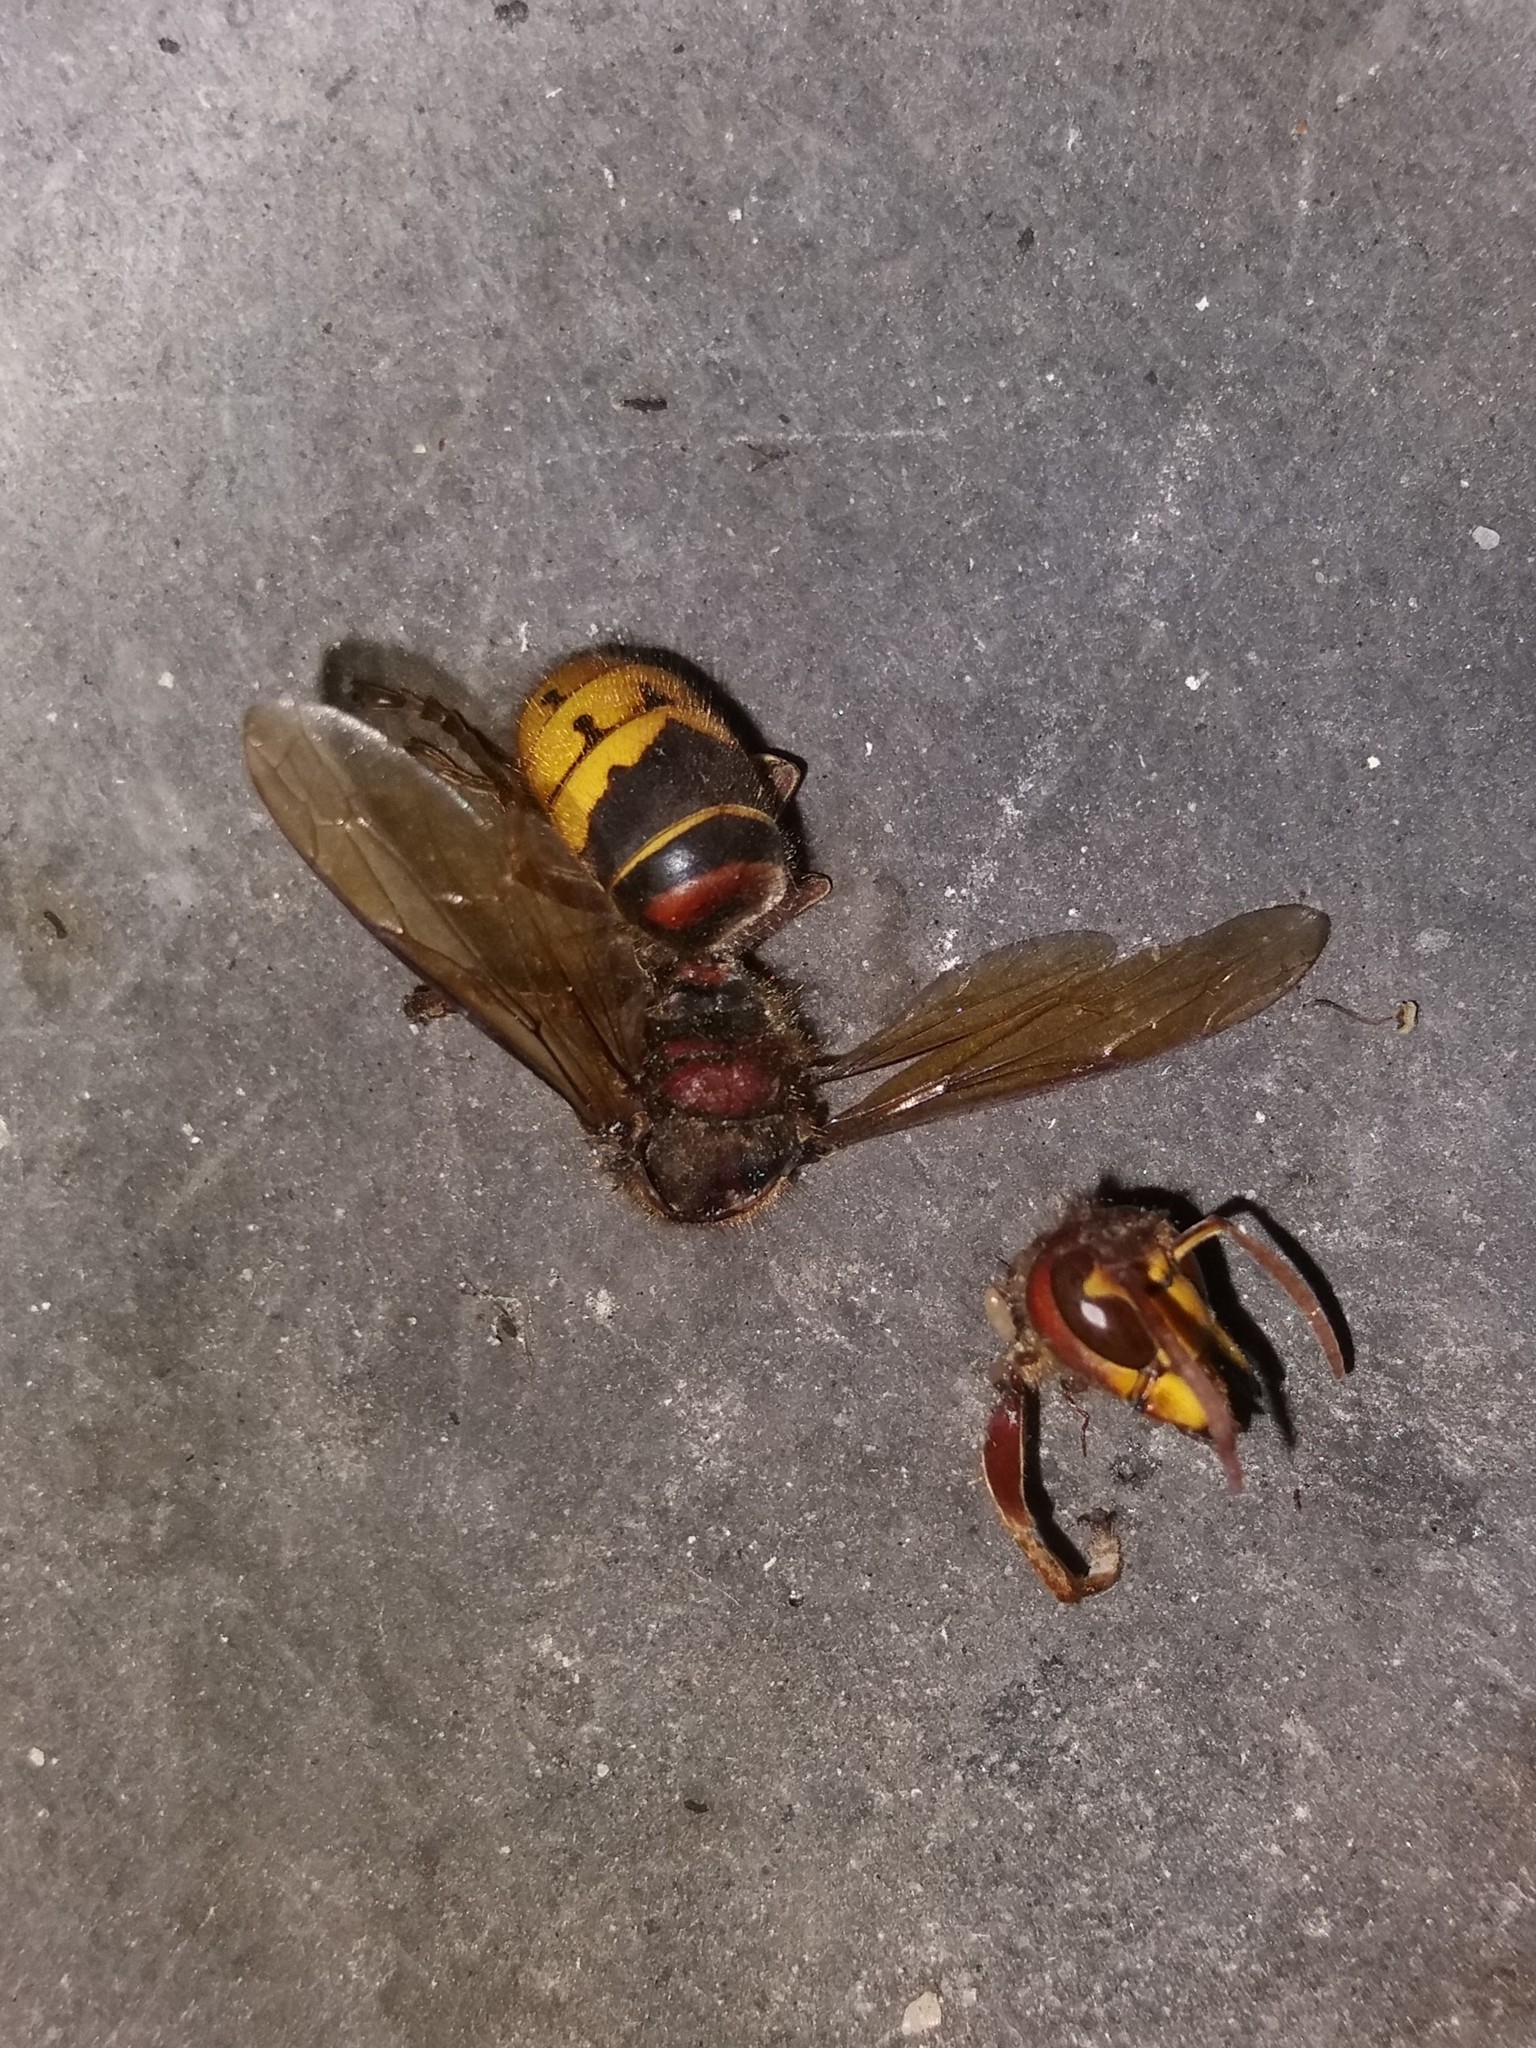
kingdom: Animalia
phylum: Arthropoda
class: Insecta
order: Hymenoptera
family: Vespidae
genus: Vespa
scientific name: Vespa crabro
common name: Hornet
